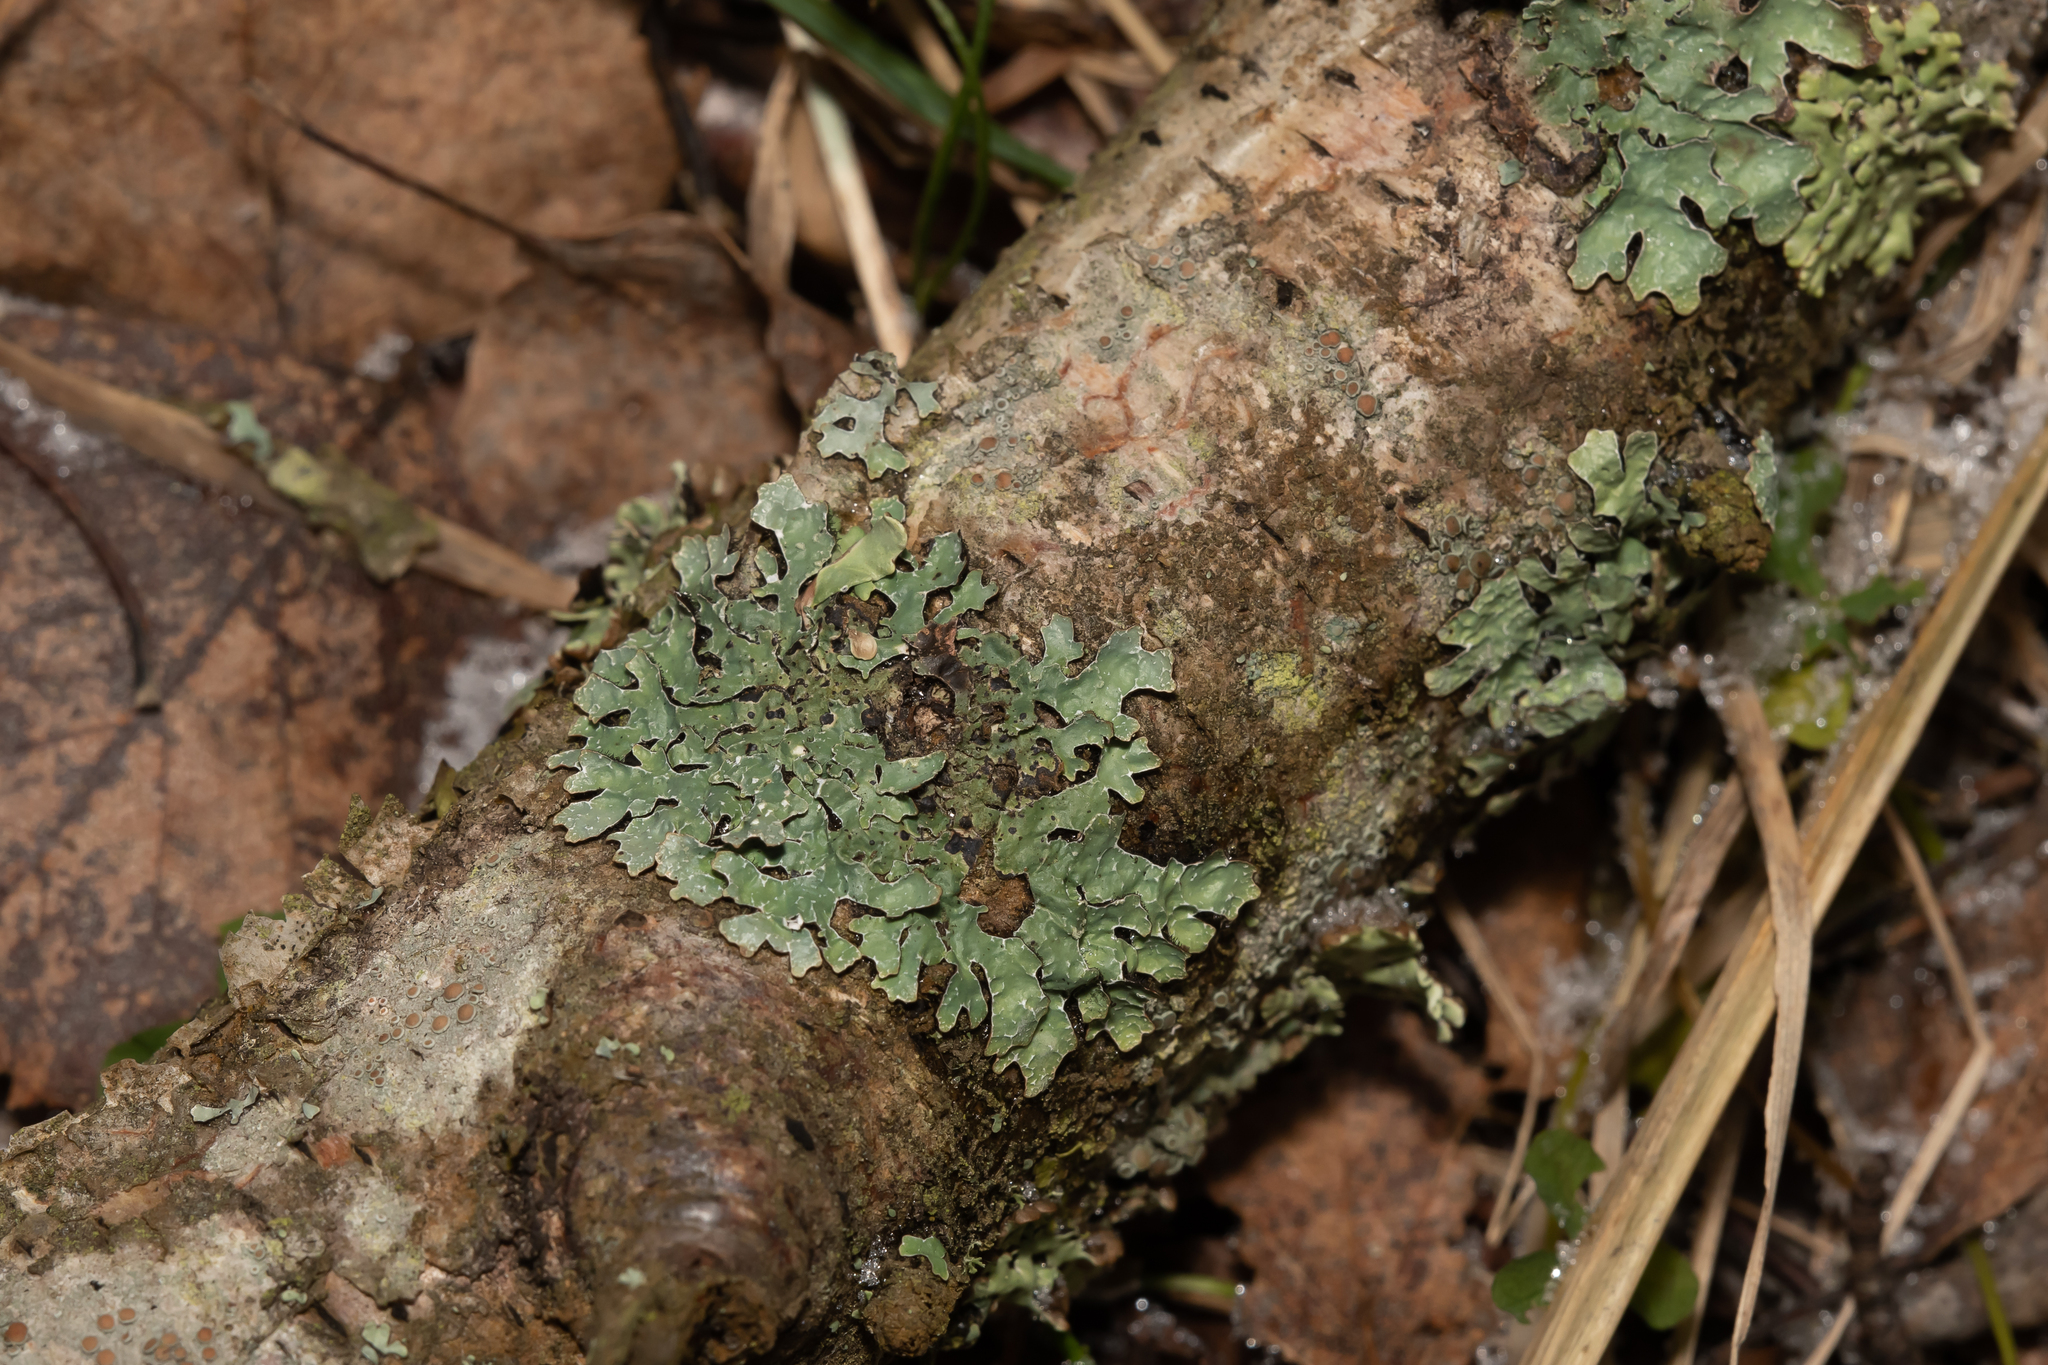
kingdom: Fungi
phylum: Ascomycota
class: Lecanoromycetes
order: Lecanorales
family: Parmeliaceae
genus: Parmelia
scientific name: Parmelia sulcata
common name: Netted shield lichen
